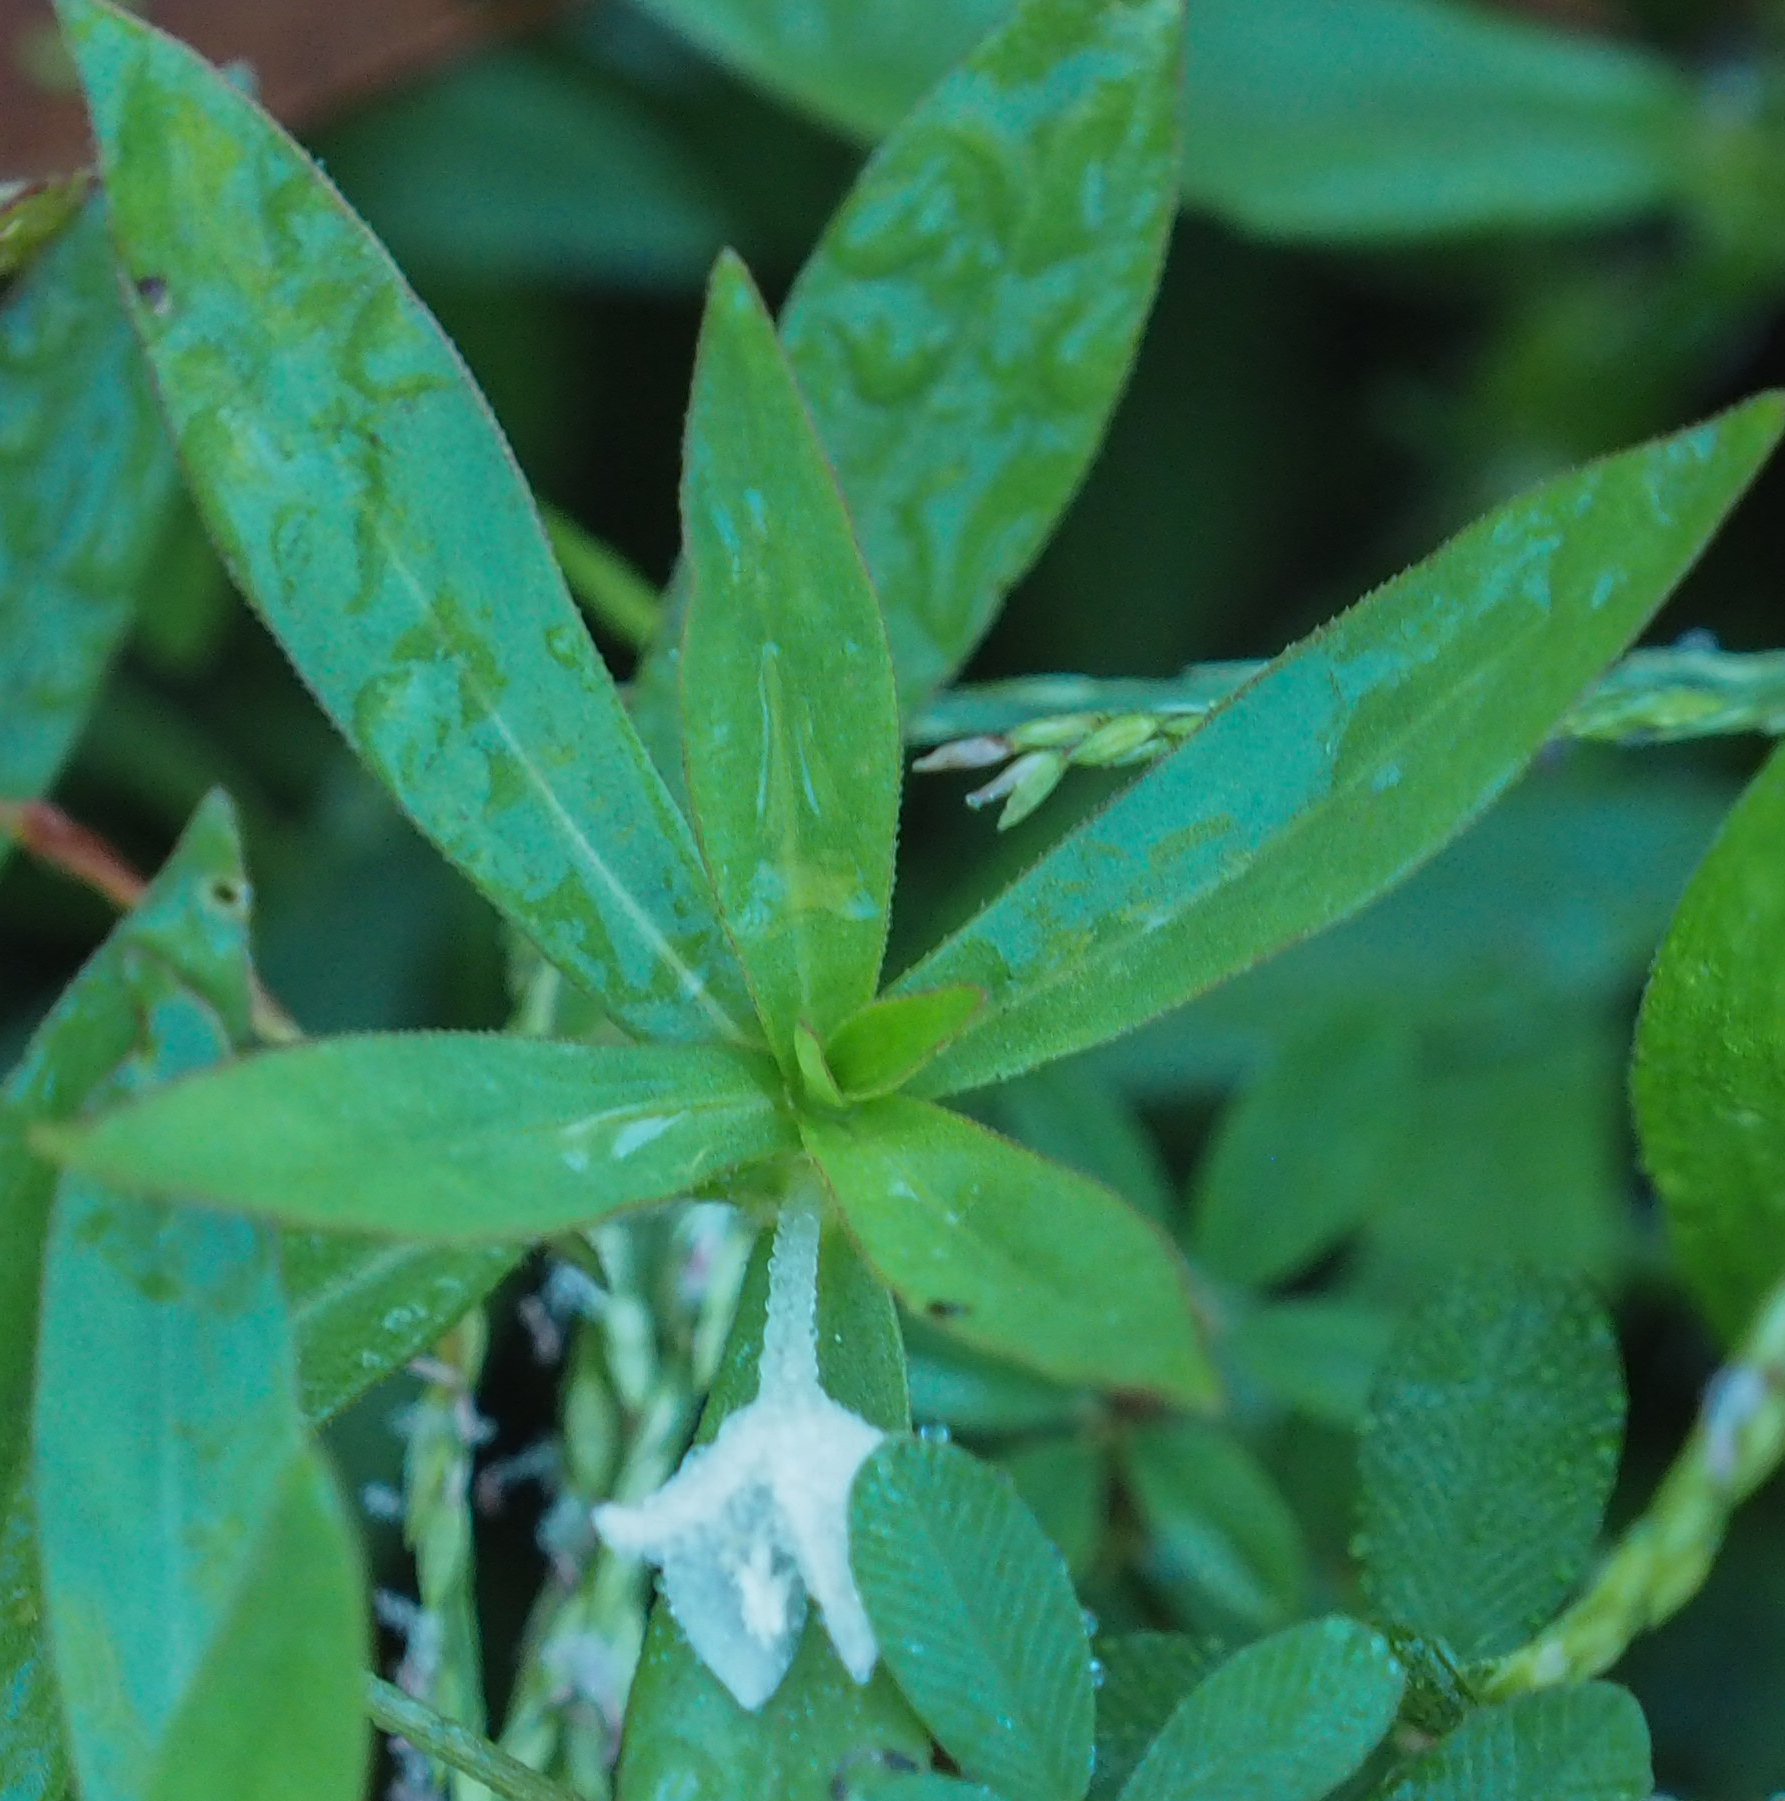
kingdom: Plantae
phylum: Tracheophyta
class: Magnoliopsida
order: Gentianales
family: Rubiaceae
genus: Diodia
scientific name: Diodia virginiana
